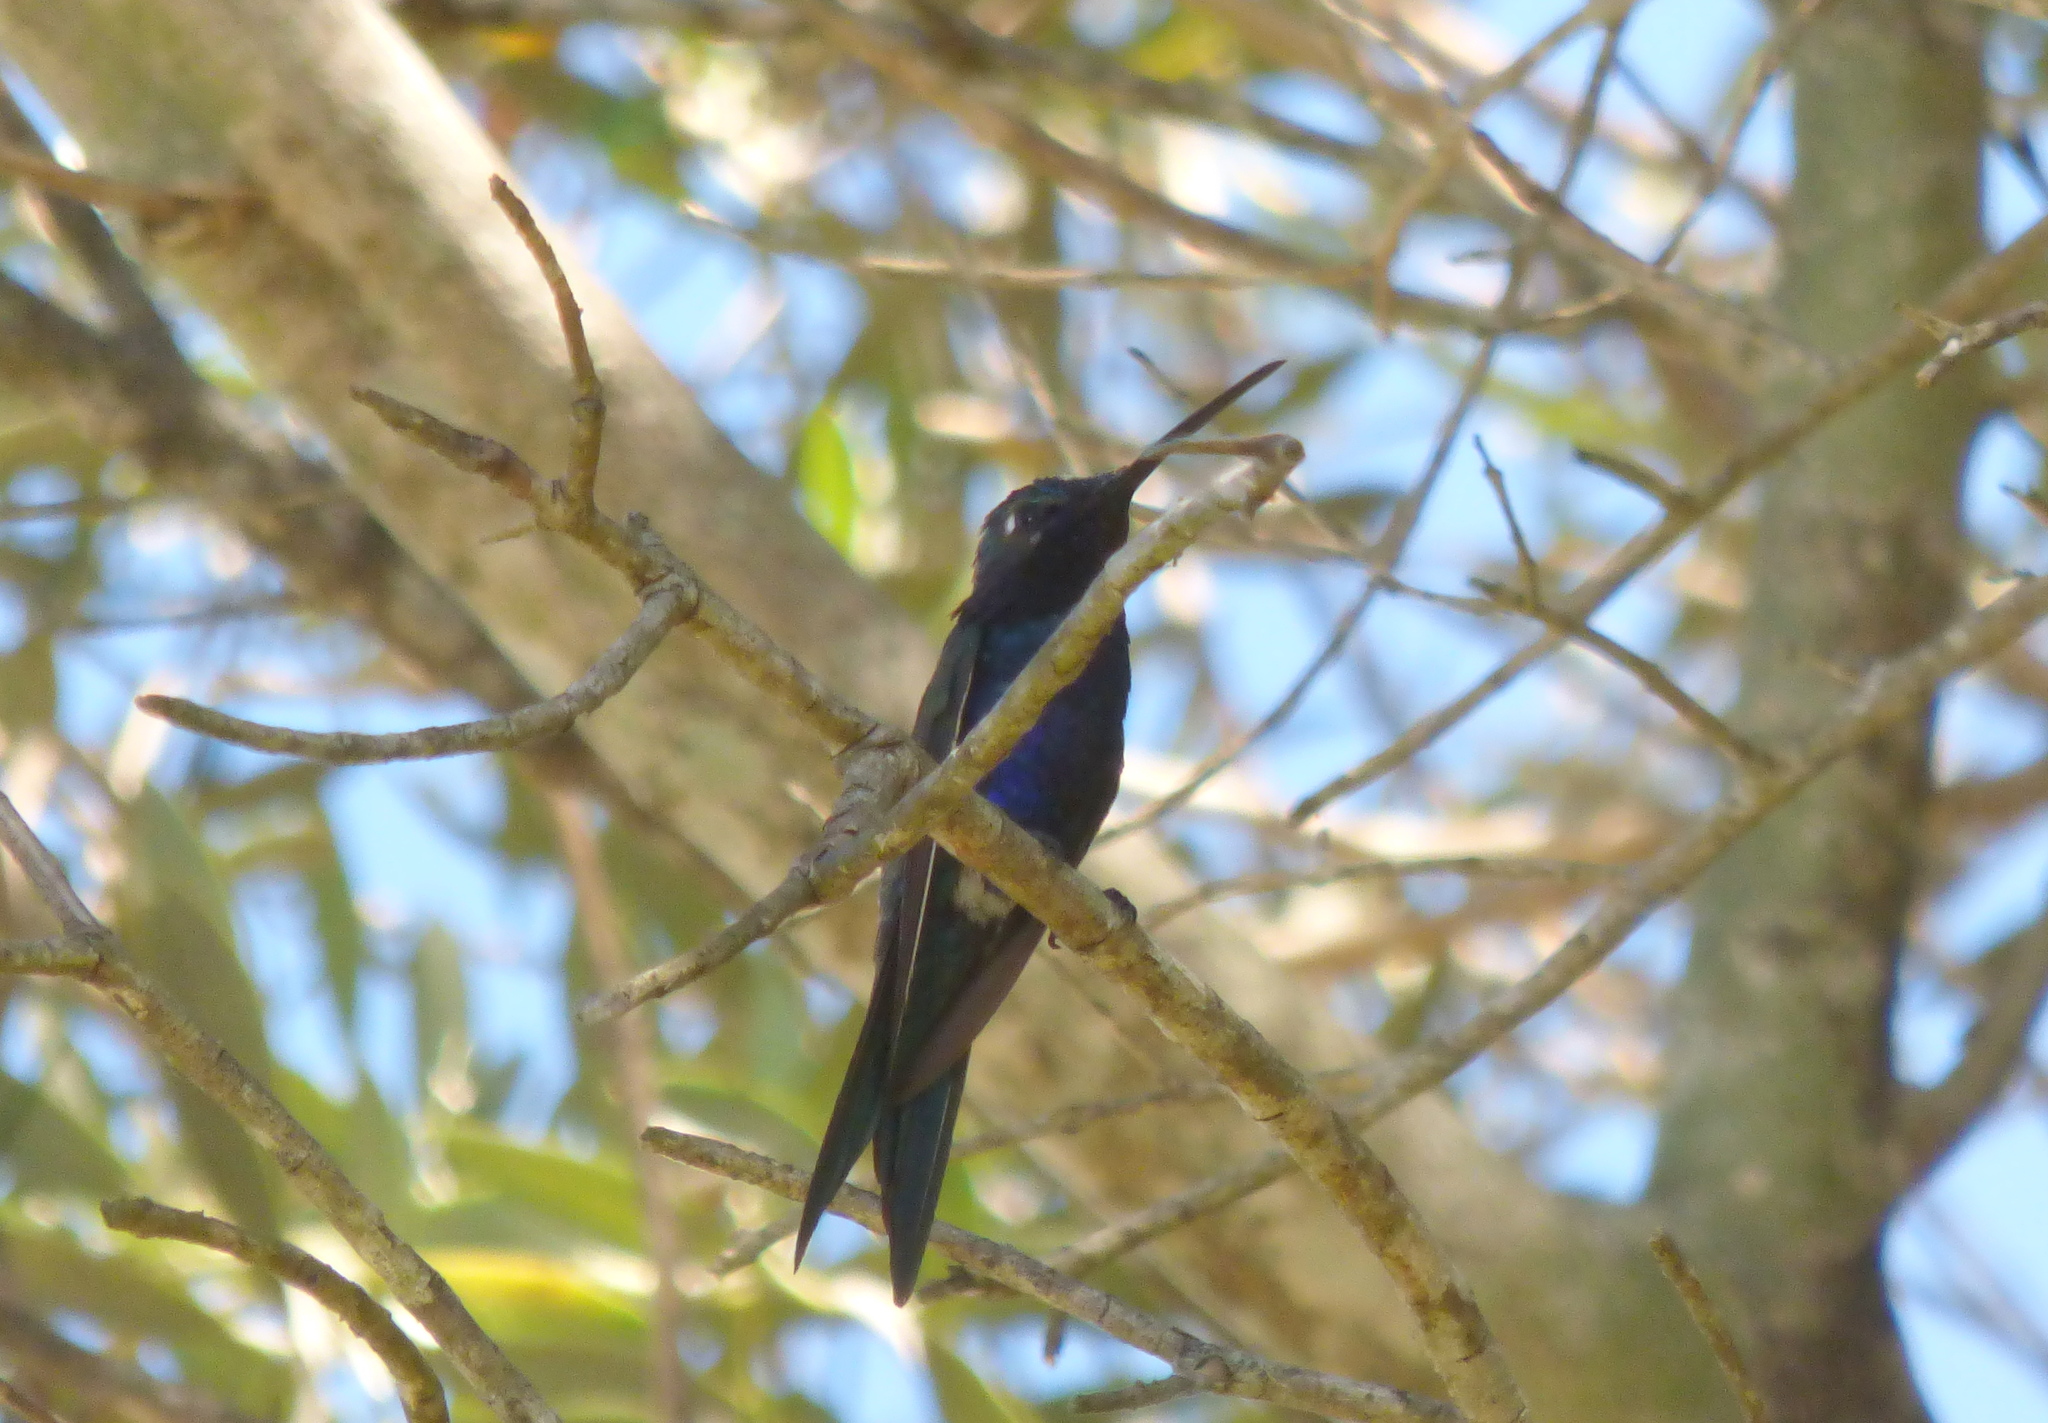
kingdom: Animalia
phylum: Chordata
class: Aves
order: Apodiformes
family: Trochilidae
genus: Heliomaster
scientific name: Heliomaster furcifer
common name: Blue-tufted starthroat
